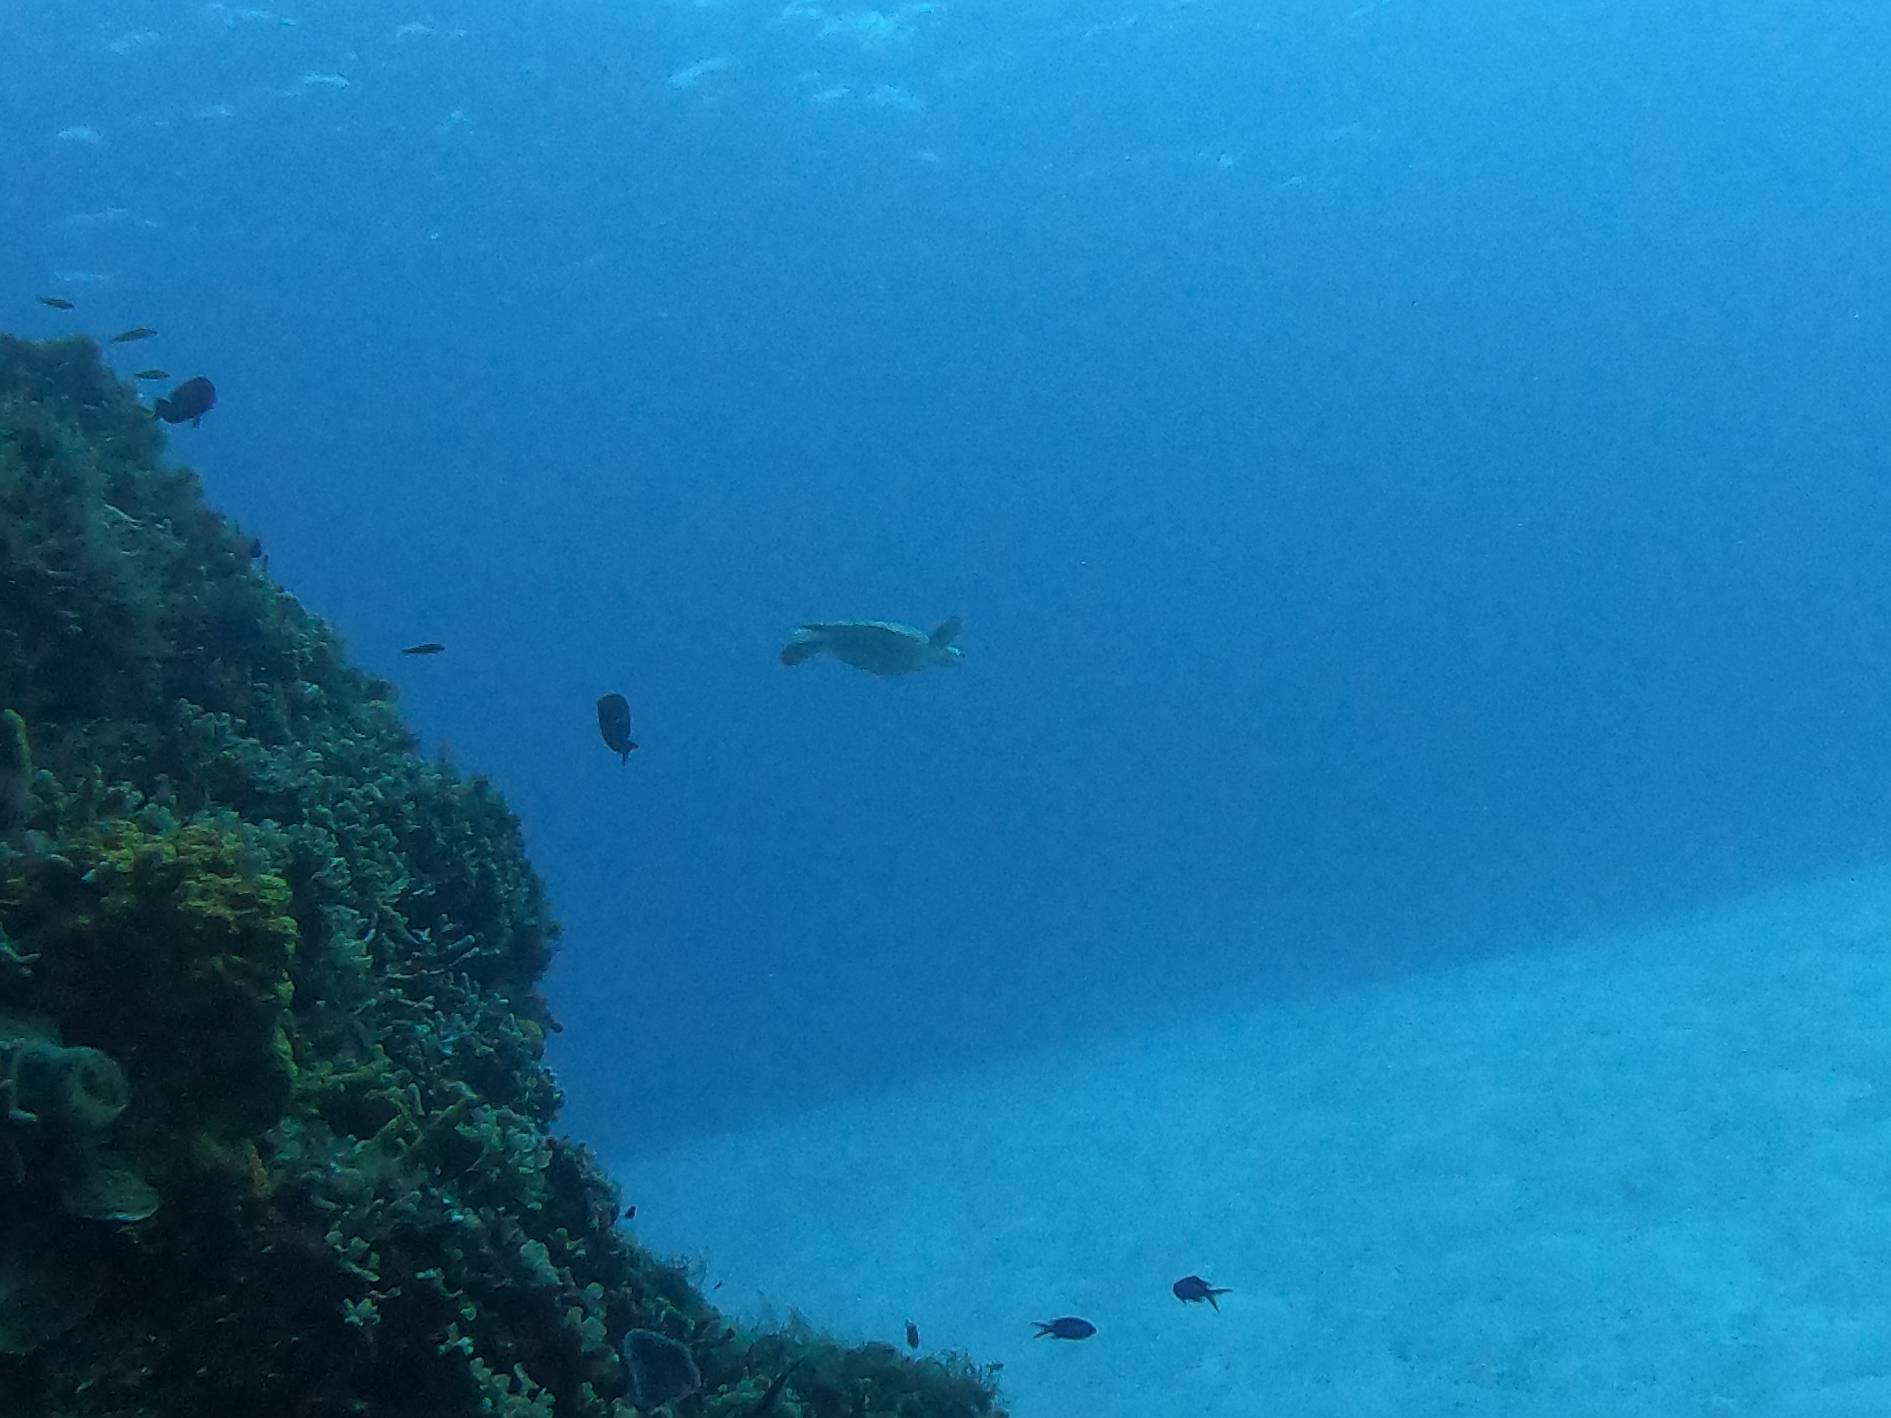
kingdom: Animalia
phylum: Chordata
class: Testudines
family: Cheloniidae
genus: Chelonia
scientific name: Chelonia mydas
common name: Green turtle
